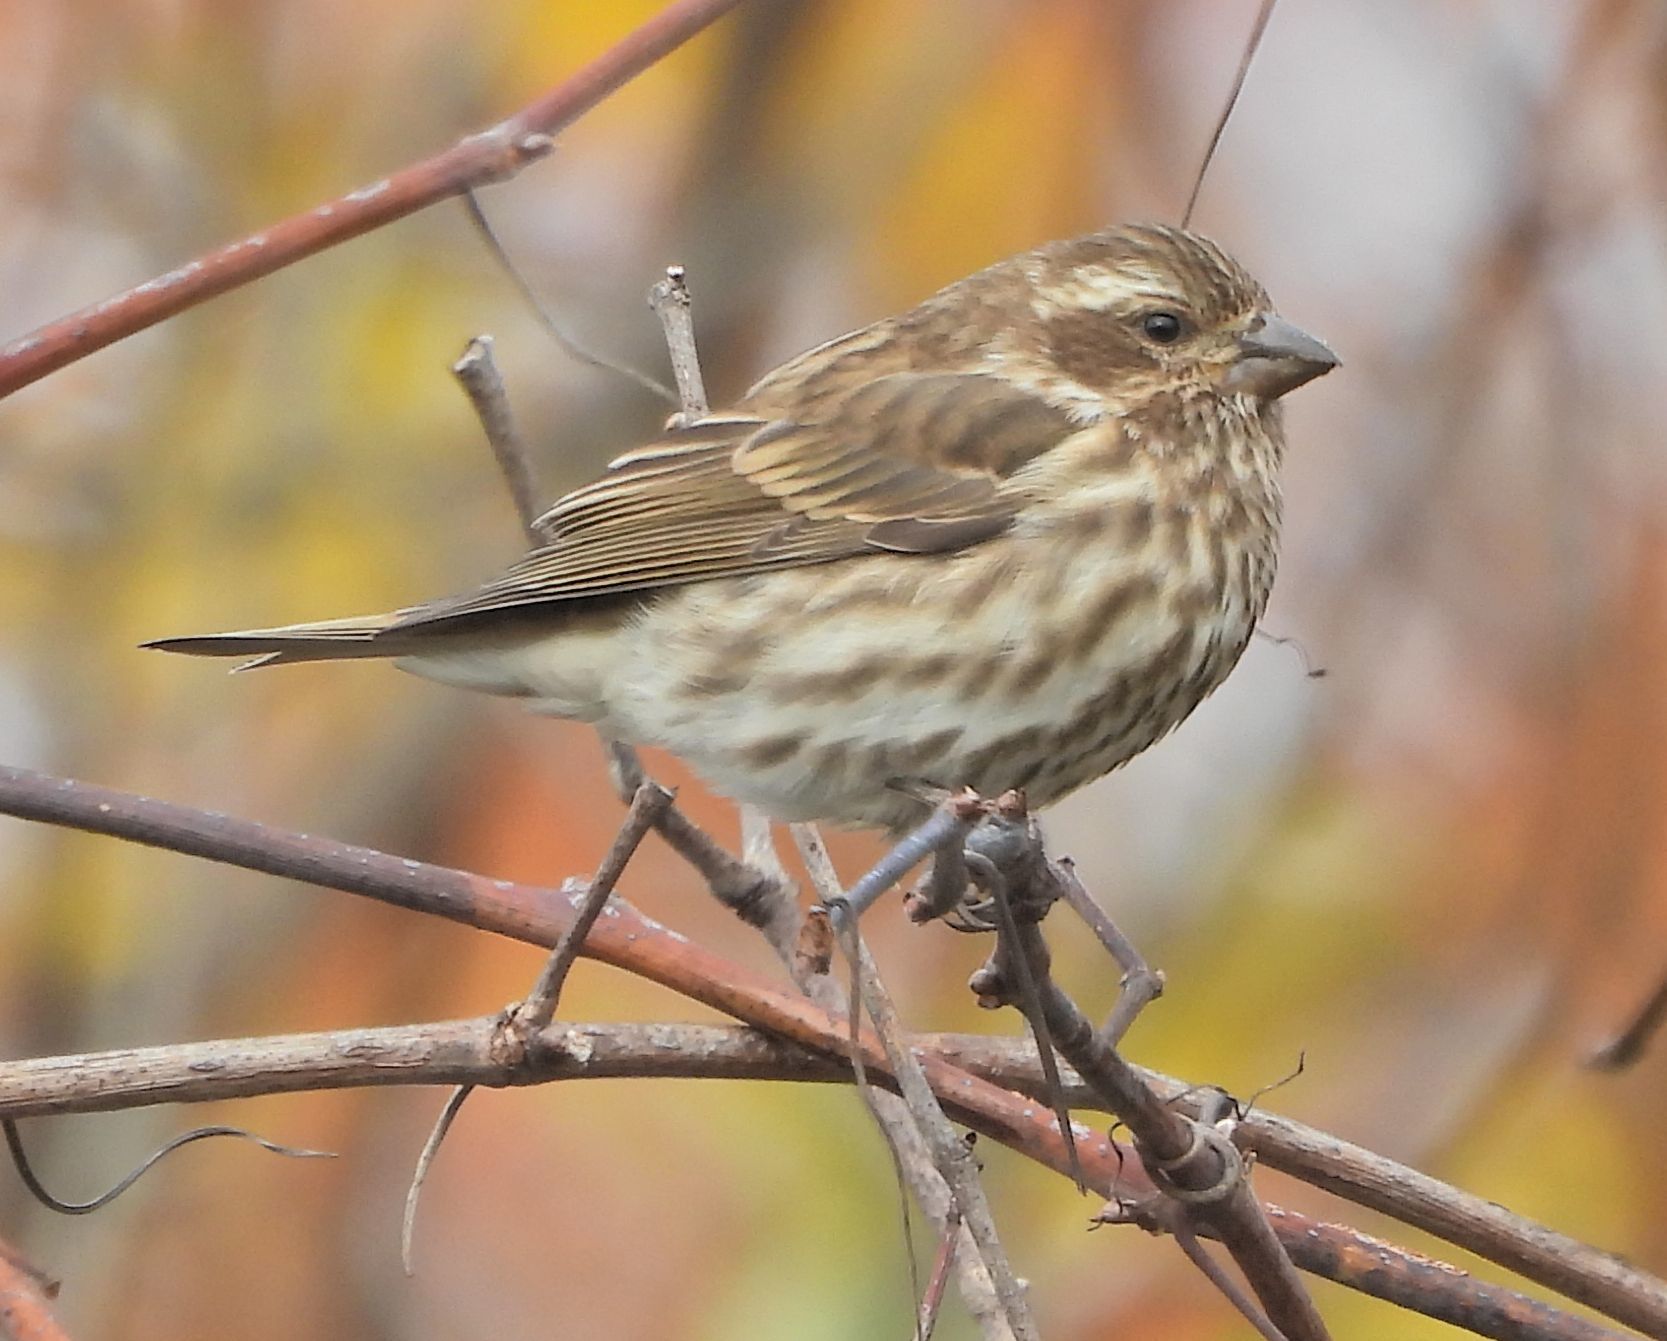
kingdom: Animalia
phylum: Chordata
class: Aves
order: Passeriformes
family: Fringillidae
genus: Haemorhous
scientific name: Haemorhous purpureus
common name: Purple finch
